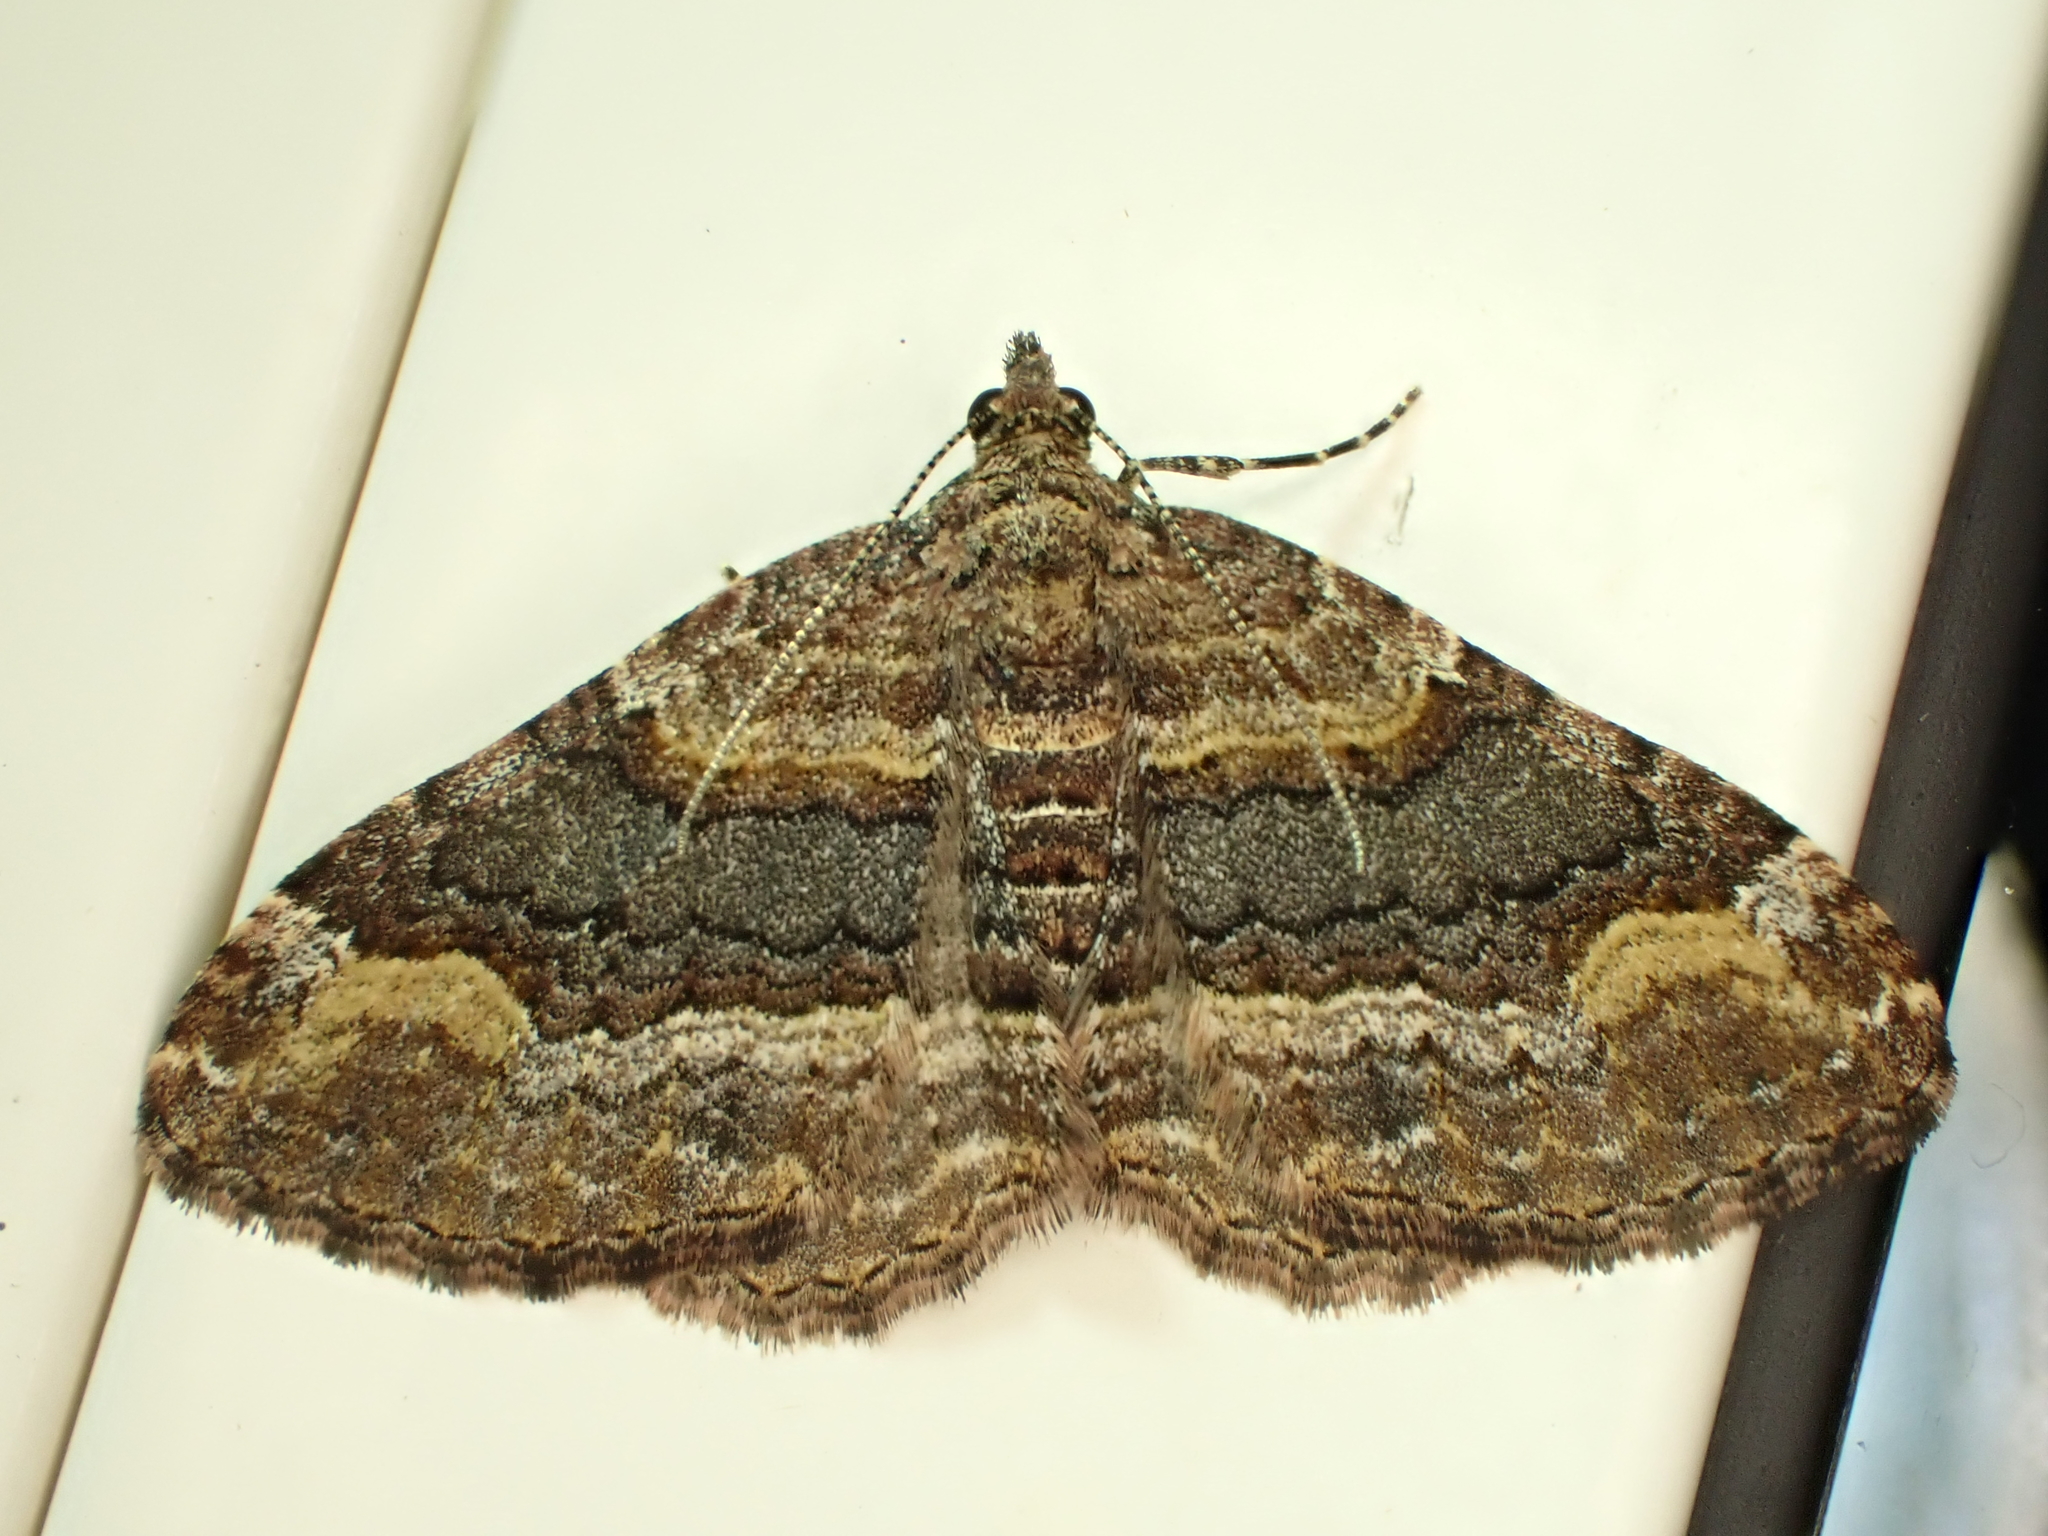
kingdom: Animalia
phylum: Arthropoda
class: Insecta
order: Lepidoptera
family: Geometridae
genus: Epyaxa
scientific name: Epyaxa lucidata
